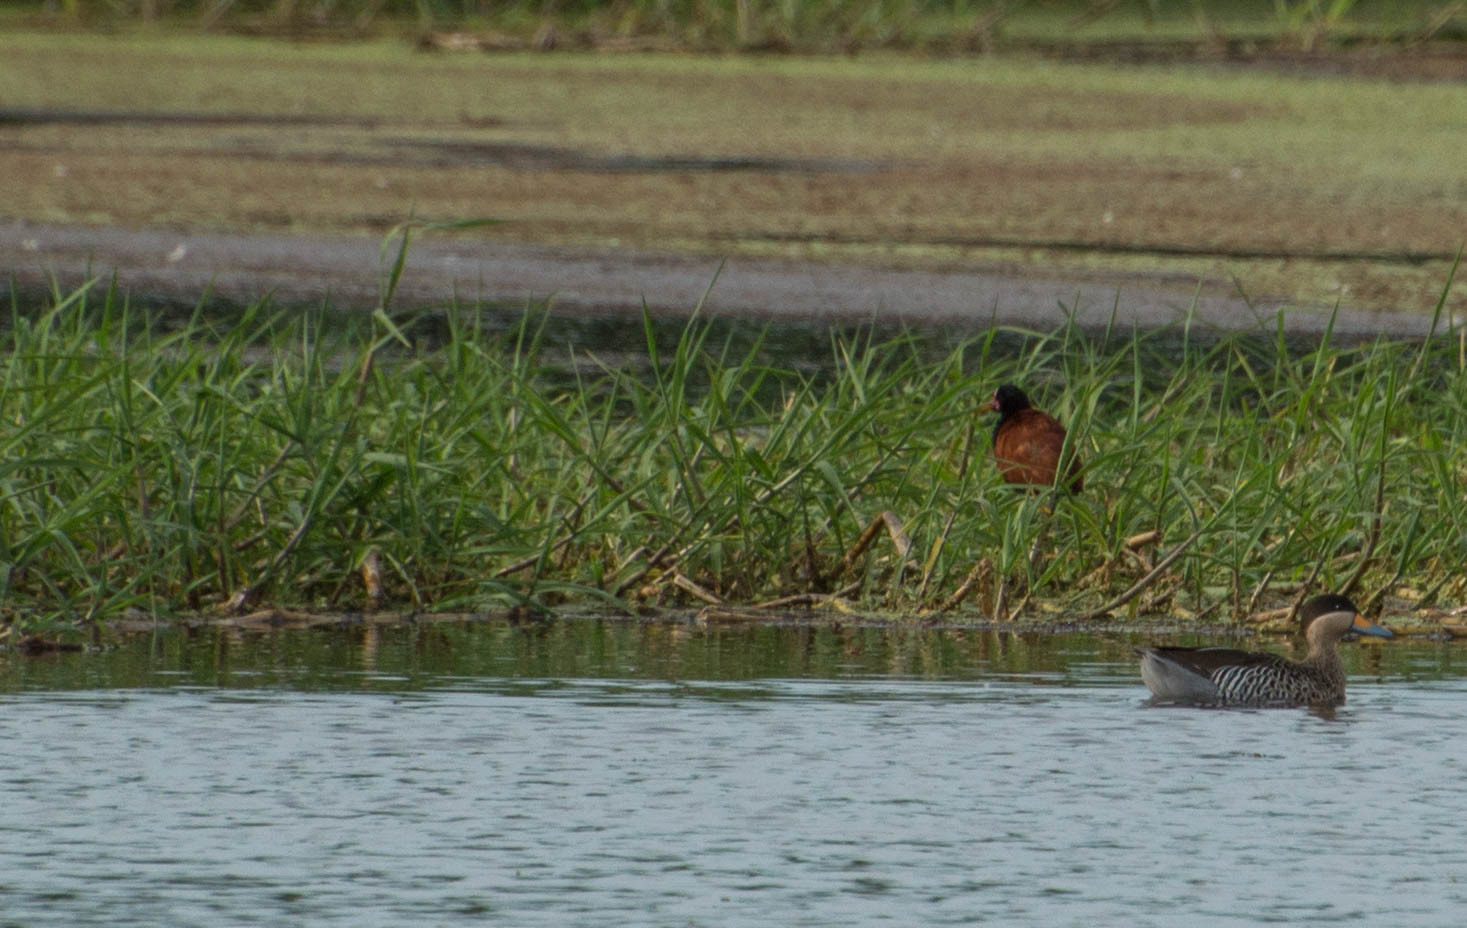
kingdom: Animalia
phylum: Chordata
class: Aves
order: Charadriiformes
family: Jacanidae
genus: Jacana
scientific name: Jacana jacana
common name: Wattled jacana
